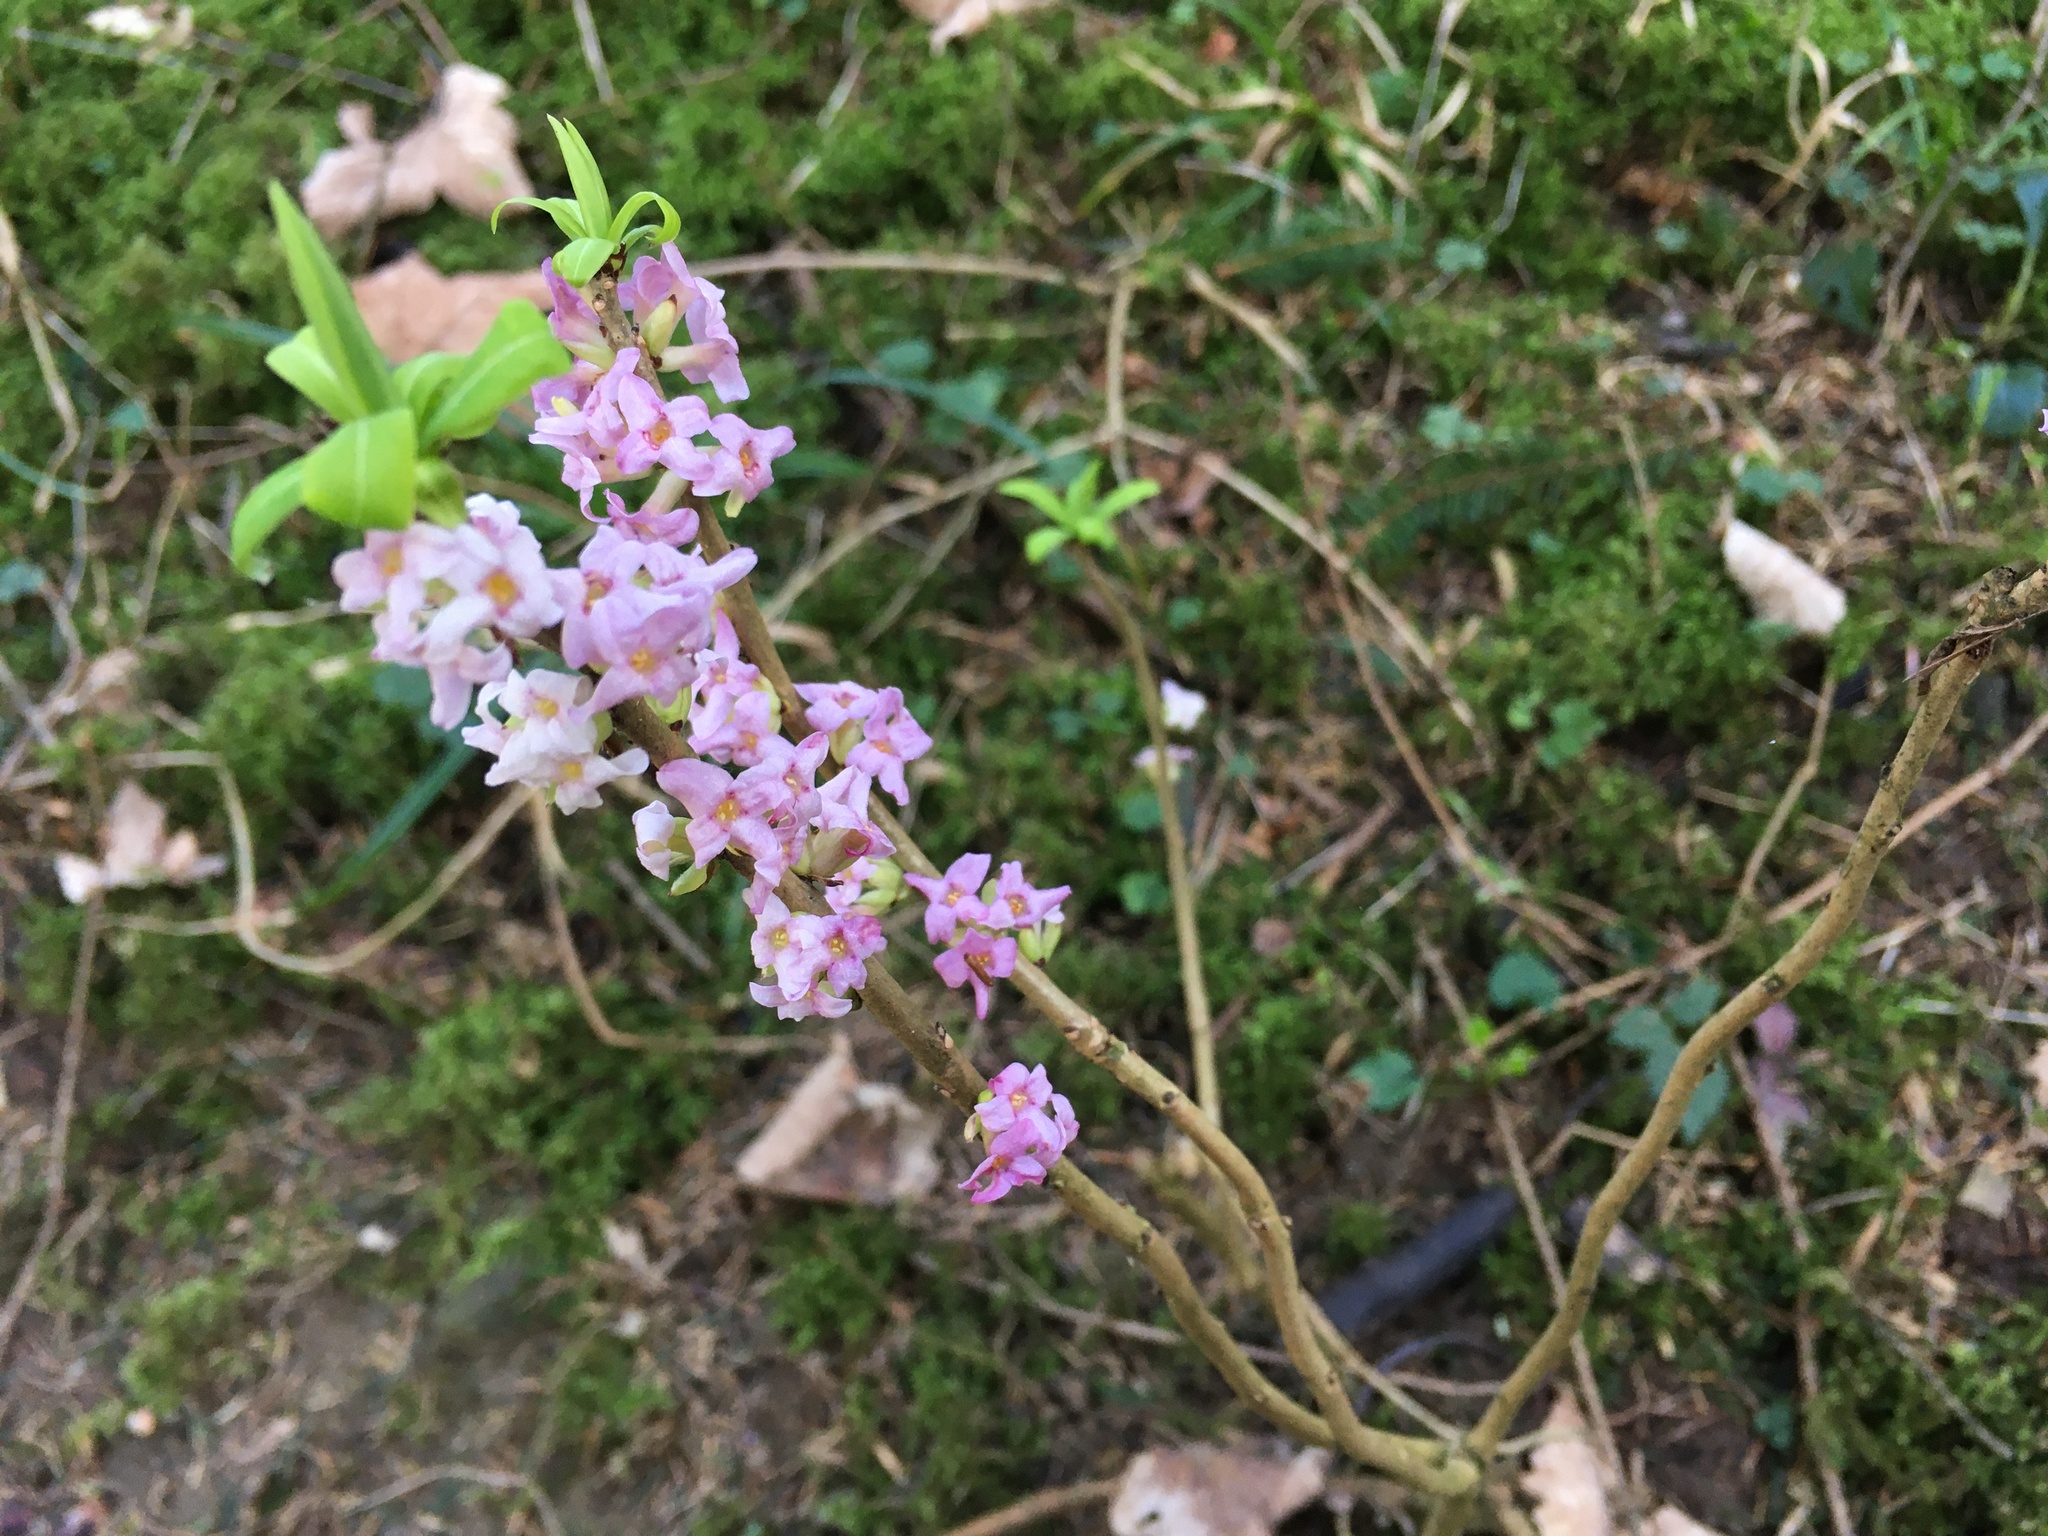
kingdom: Plantae
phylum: Tracheophyta
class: Magnoliopsida
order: Malvales
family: Thymelaeaceae
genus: Daphne
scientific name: Daphne mezereum
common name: Mezereon
